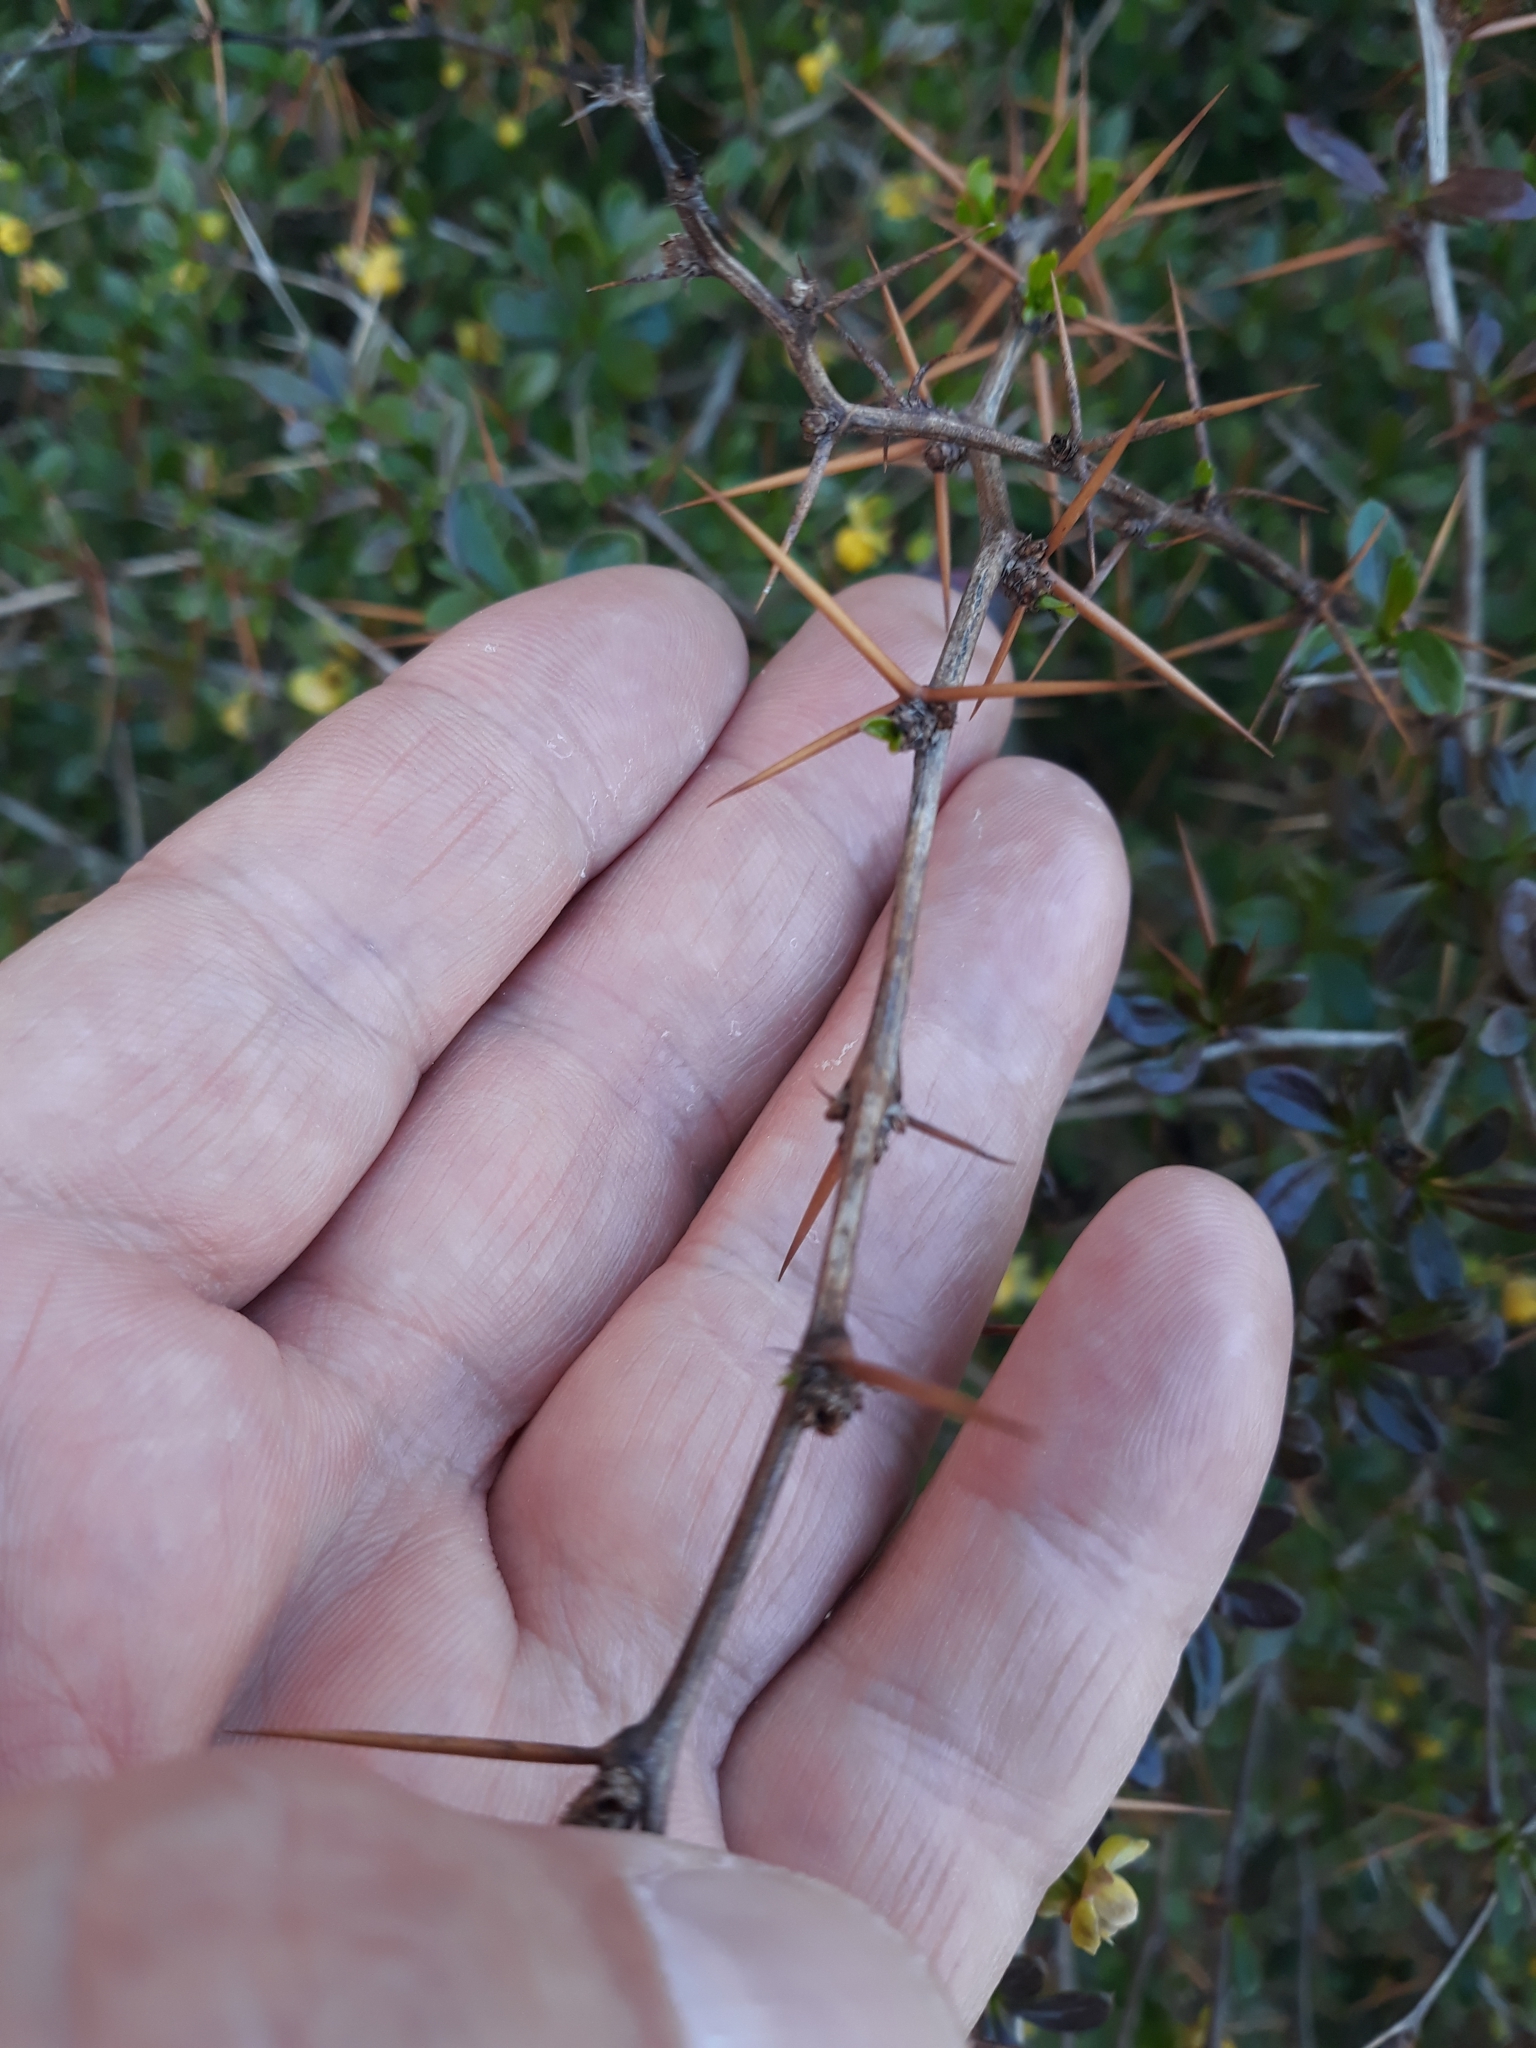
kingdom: Plantae
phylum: Tracheophyta
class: Magnoliopsida
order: Ranunculales
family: Berberidaceae
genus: Berberis
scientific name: Berberis thunbergii
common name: Japanese barberry
